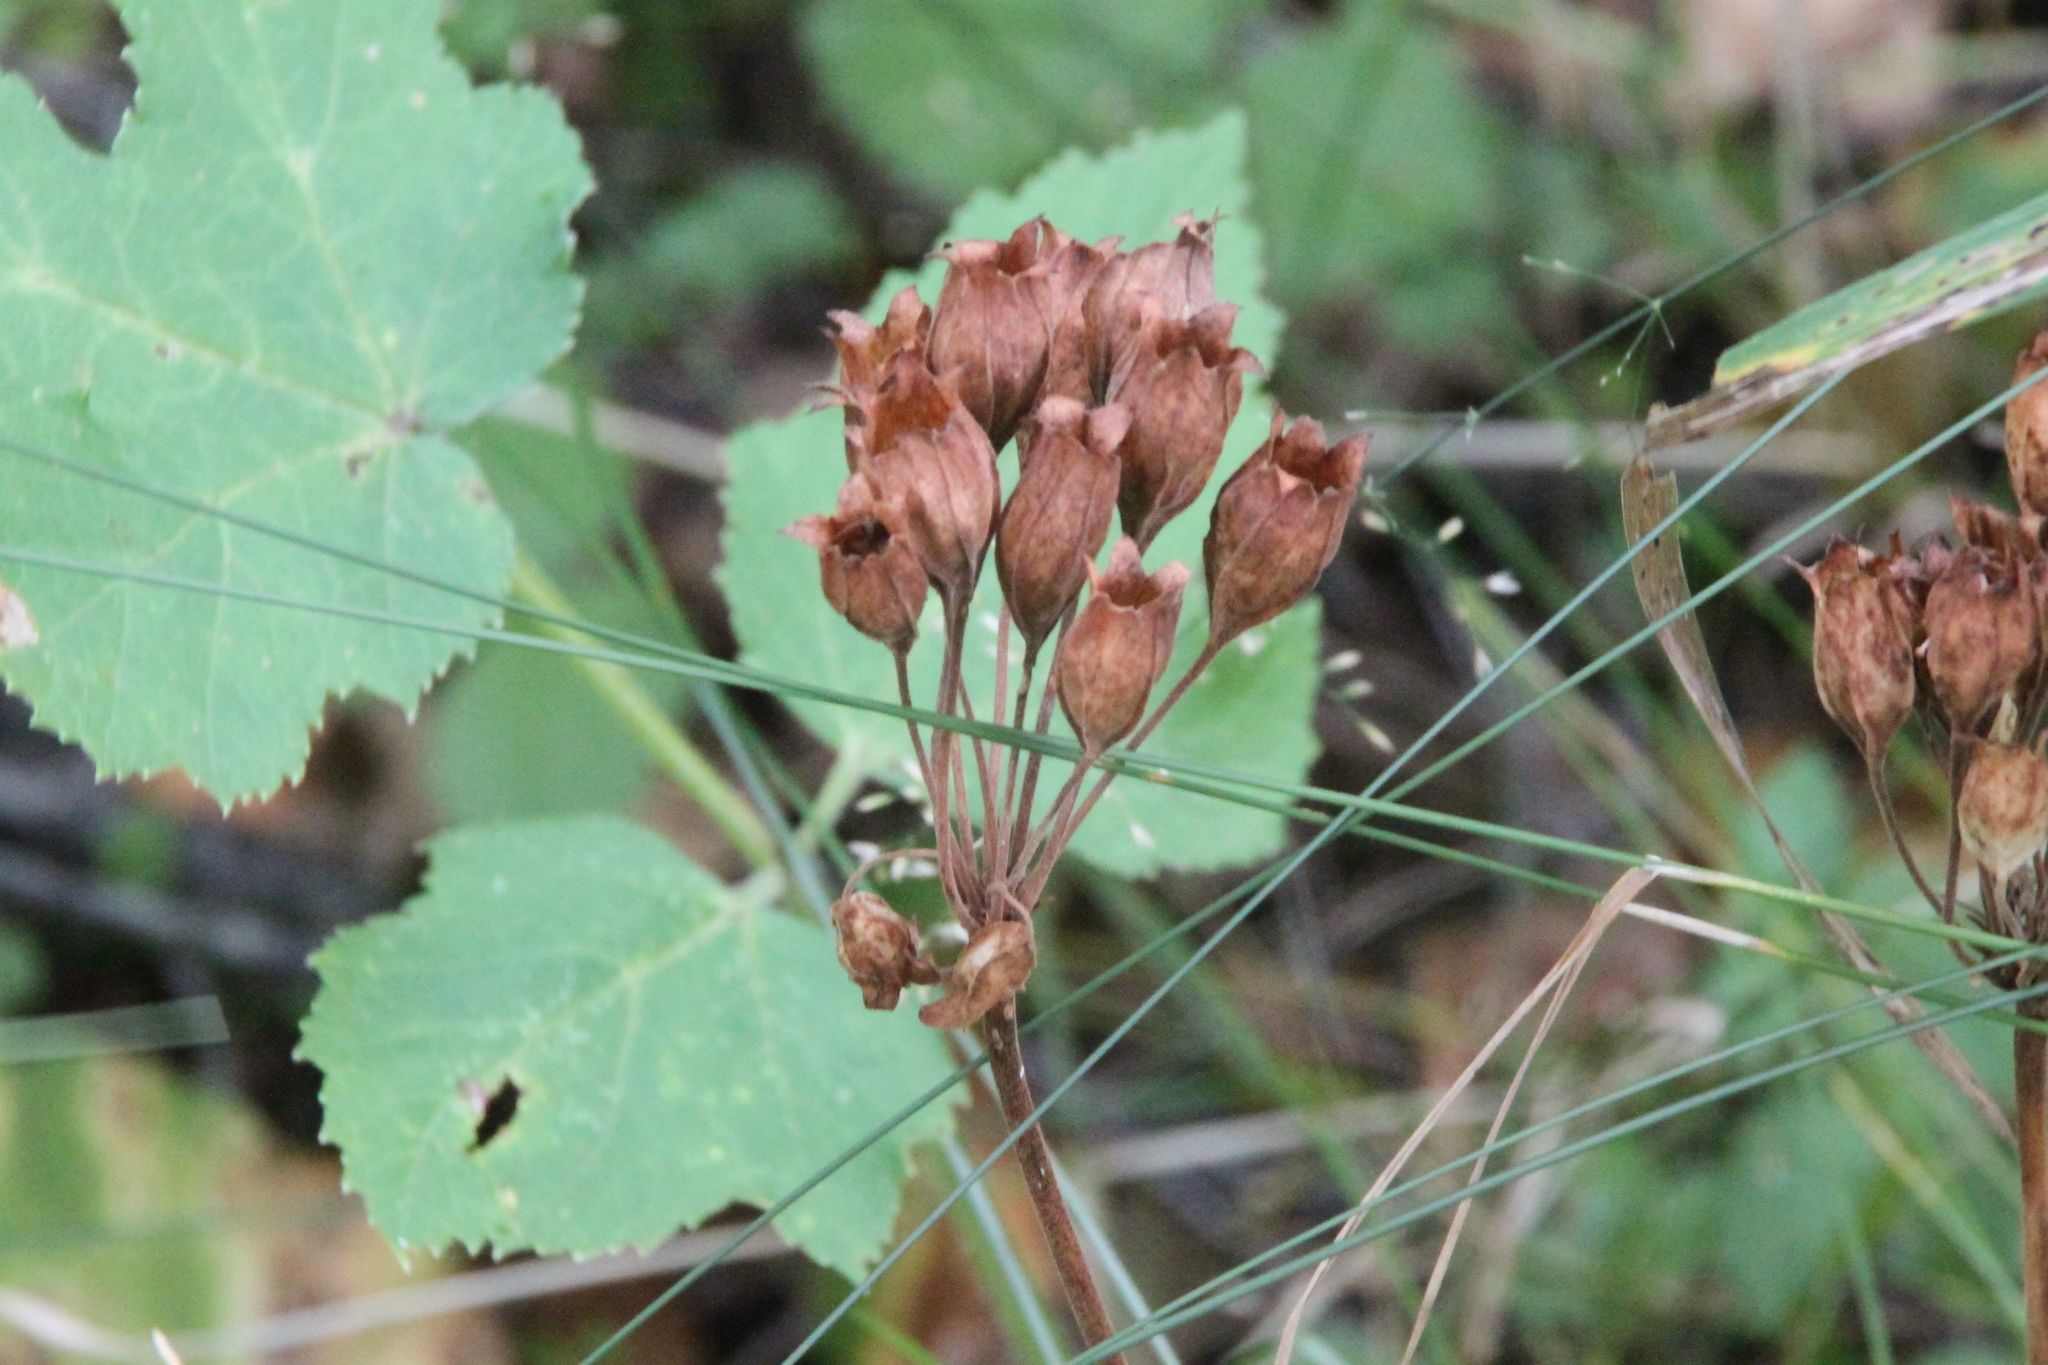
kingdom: Plantae
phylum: Tracheophyta
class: Magnoliopsida
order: Ericales
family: Primulaceae
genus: Primula
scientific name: Primula veris
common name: Cowslip
